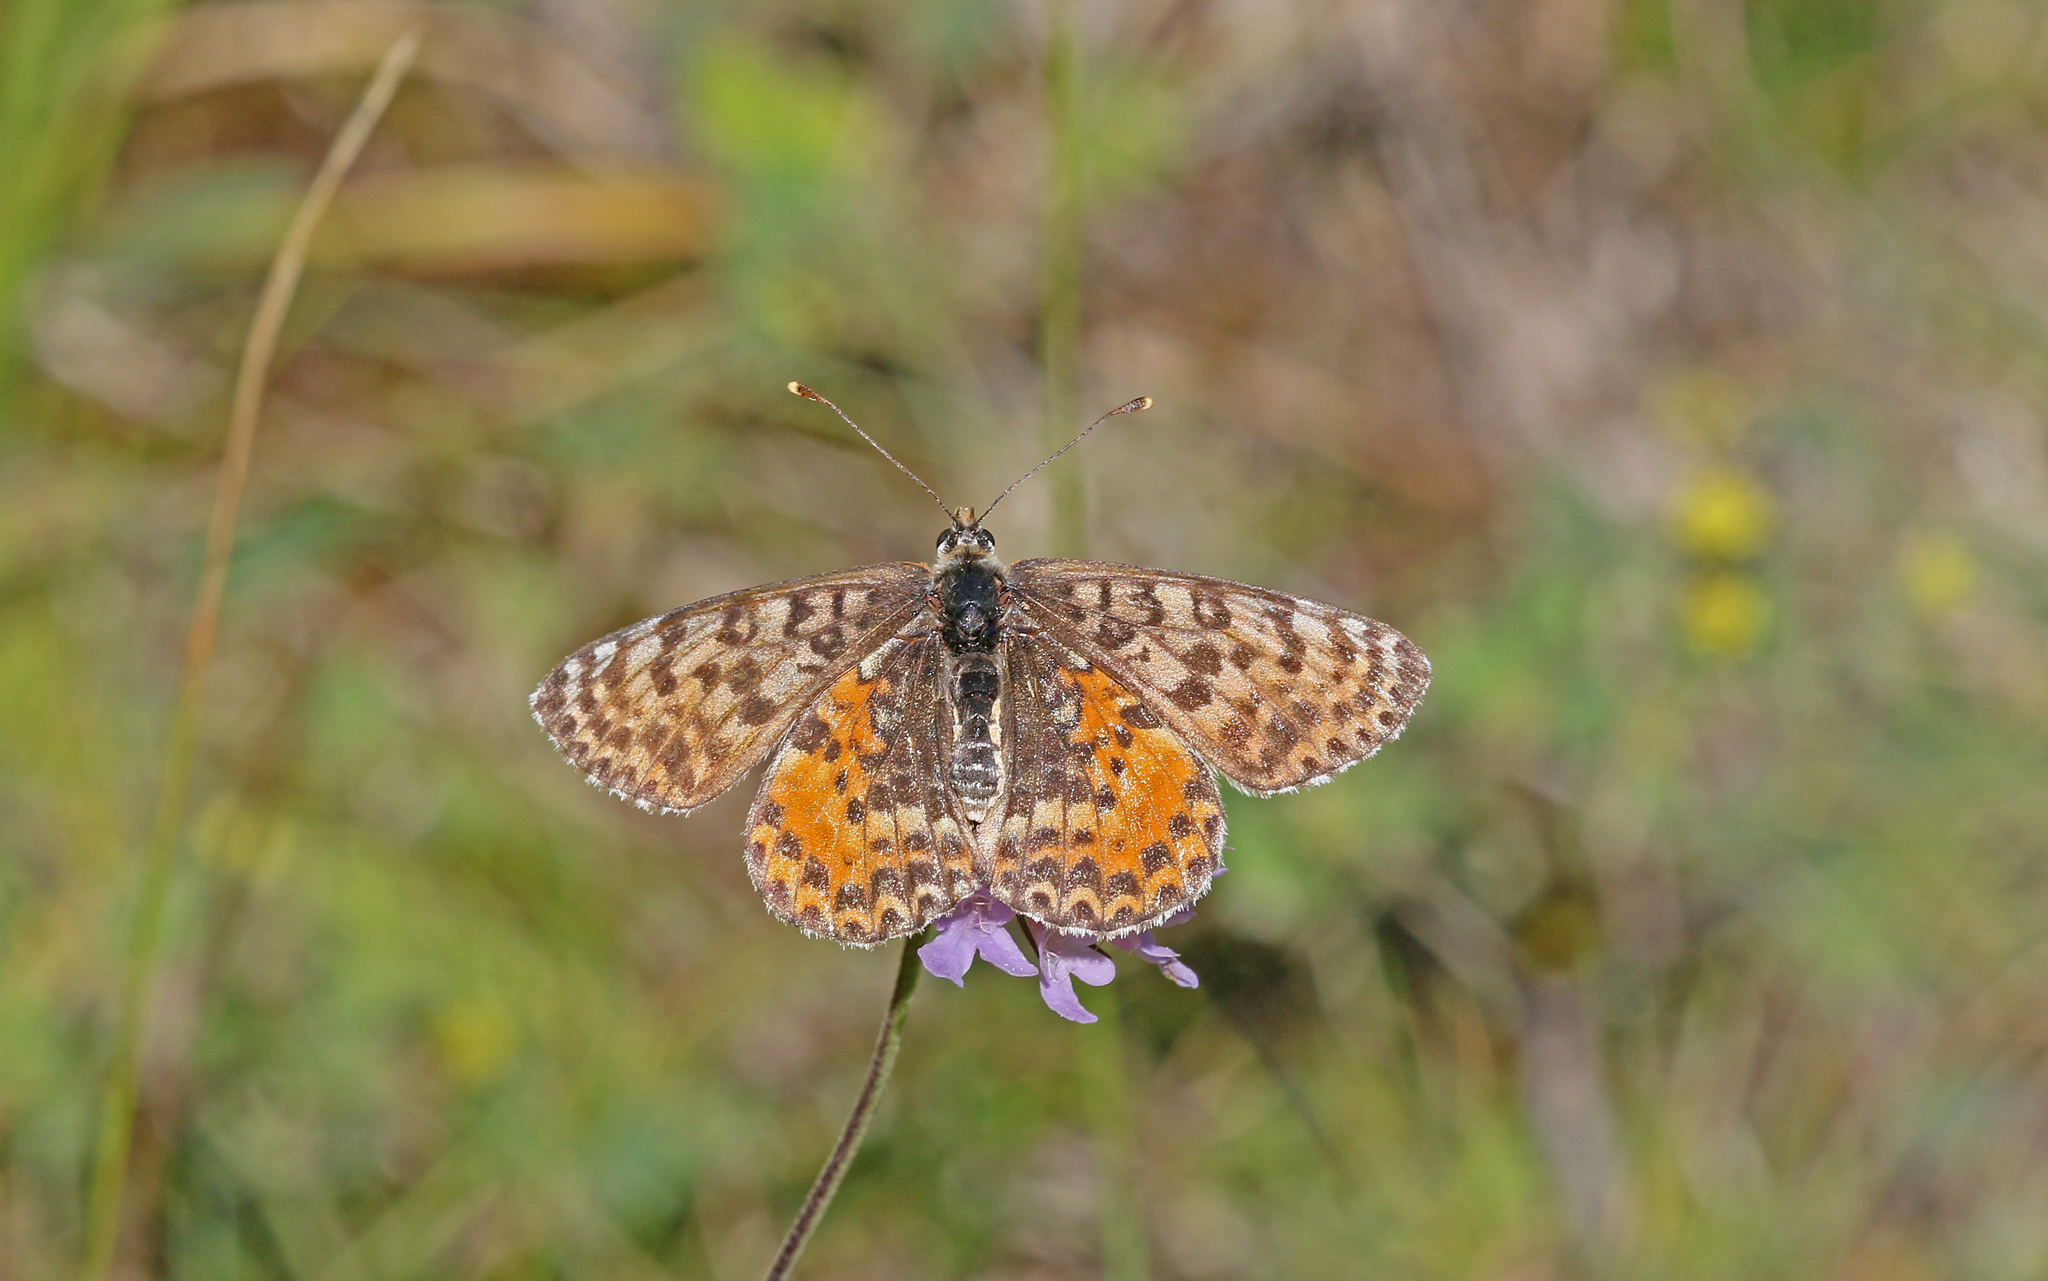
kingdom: Animalia
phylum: Arthropoda
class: Insecta
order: Lepidoptera
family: Nymphalidae
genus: Melitaea
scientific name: Melitaea didyma
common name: Spotted fritillary
